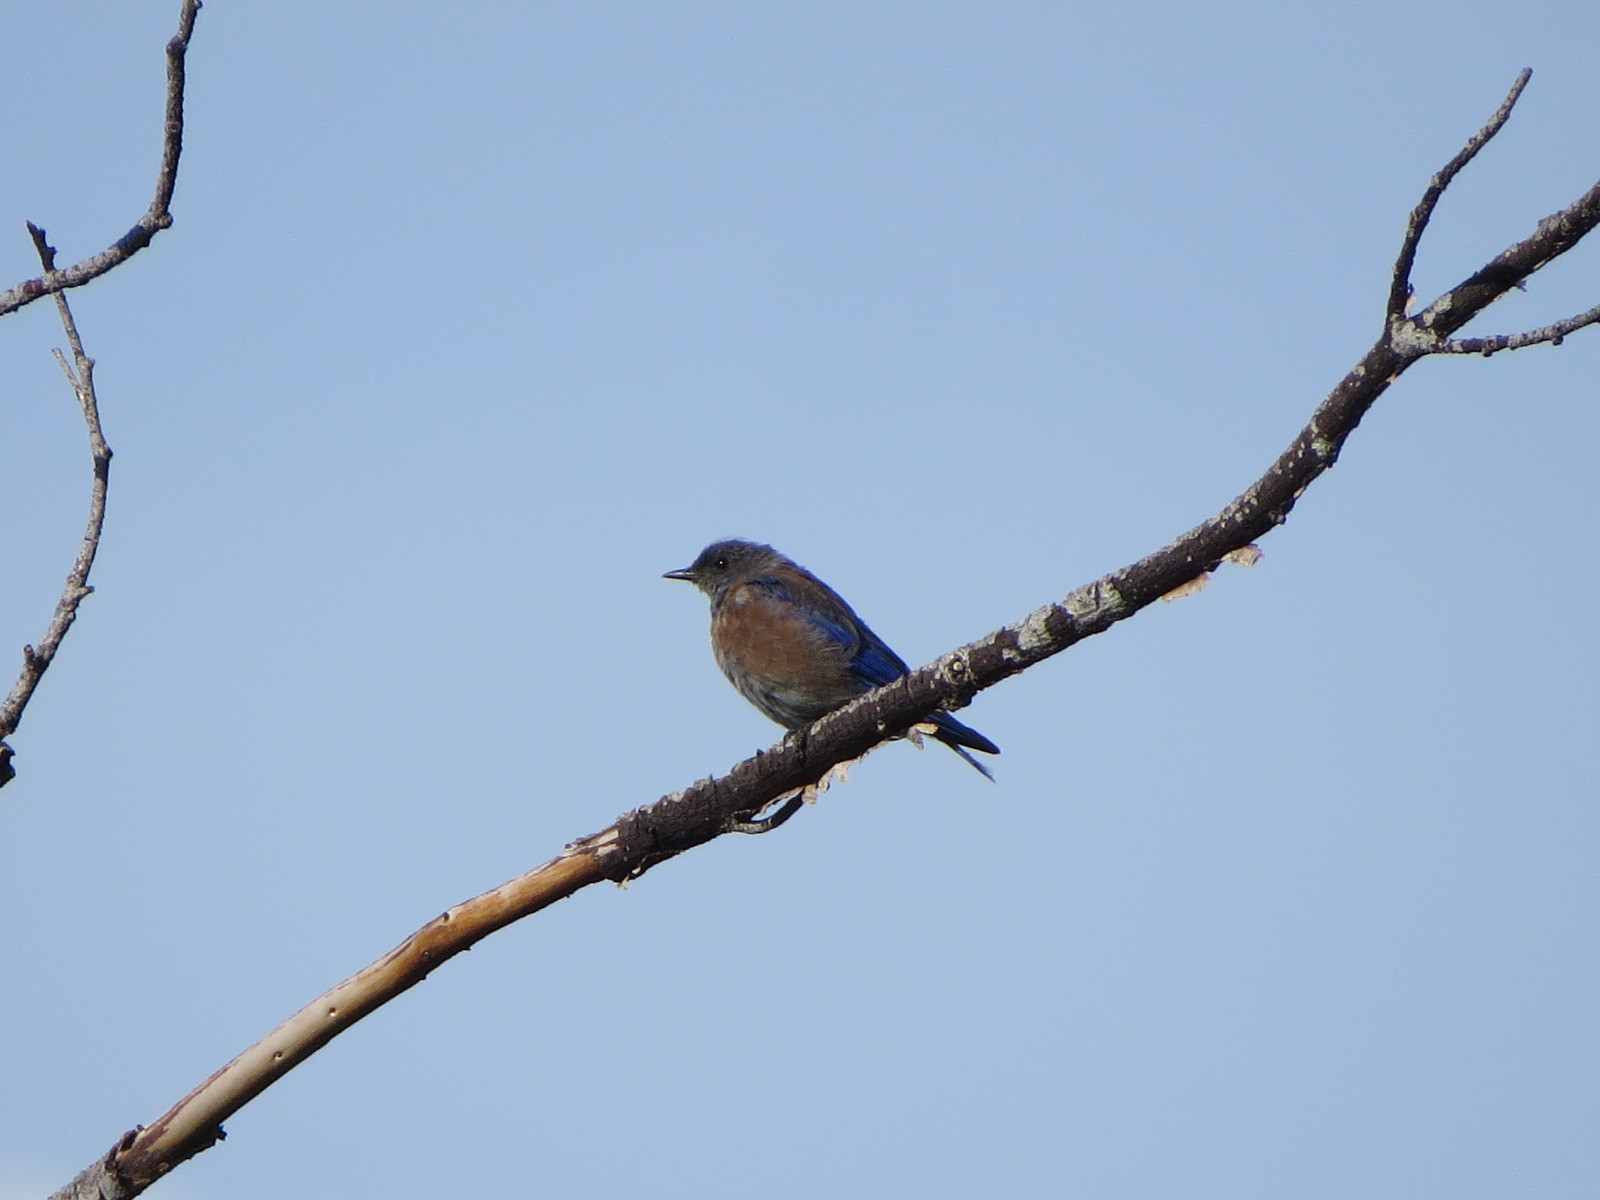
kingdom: Animalia
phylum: Chordata
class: Aves
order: Passeriformes
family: Turdidae
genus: Sialia
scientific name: Sialia mexicana
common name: Western bluebird
